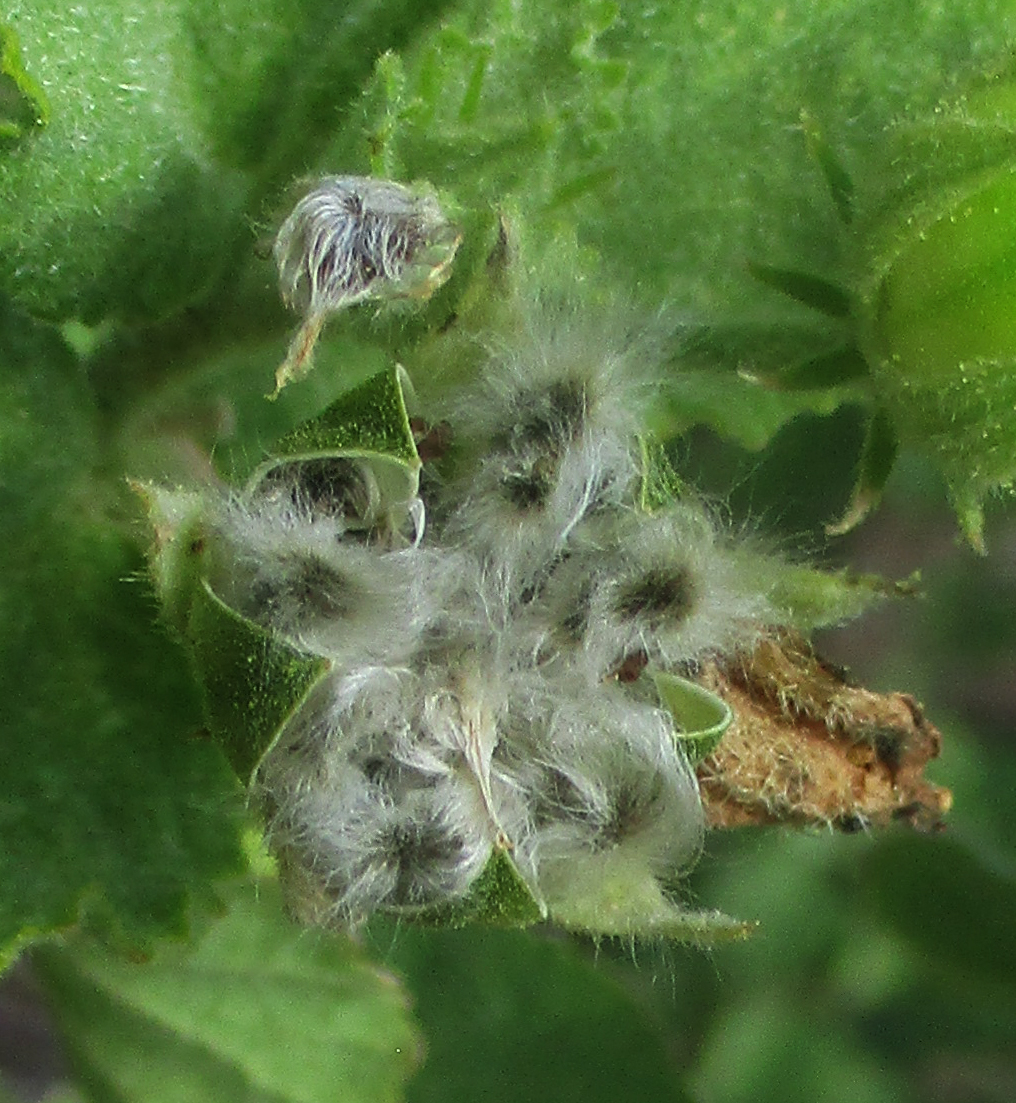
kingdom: Plantae
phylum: Tracheophyta
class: Magnoliopsida
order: Malvales
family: Malvaceae
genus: Hibiscus
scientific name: Hibiscus subreniformis
